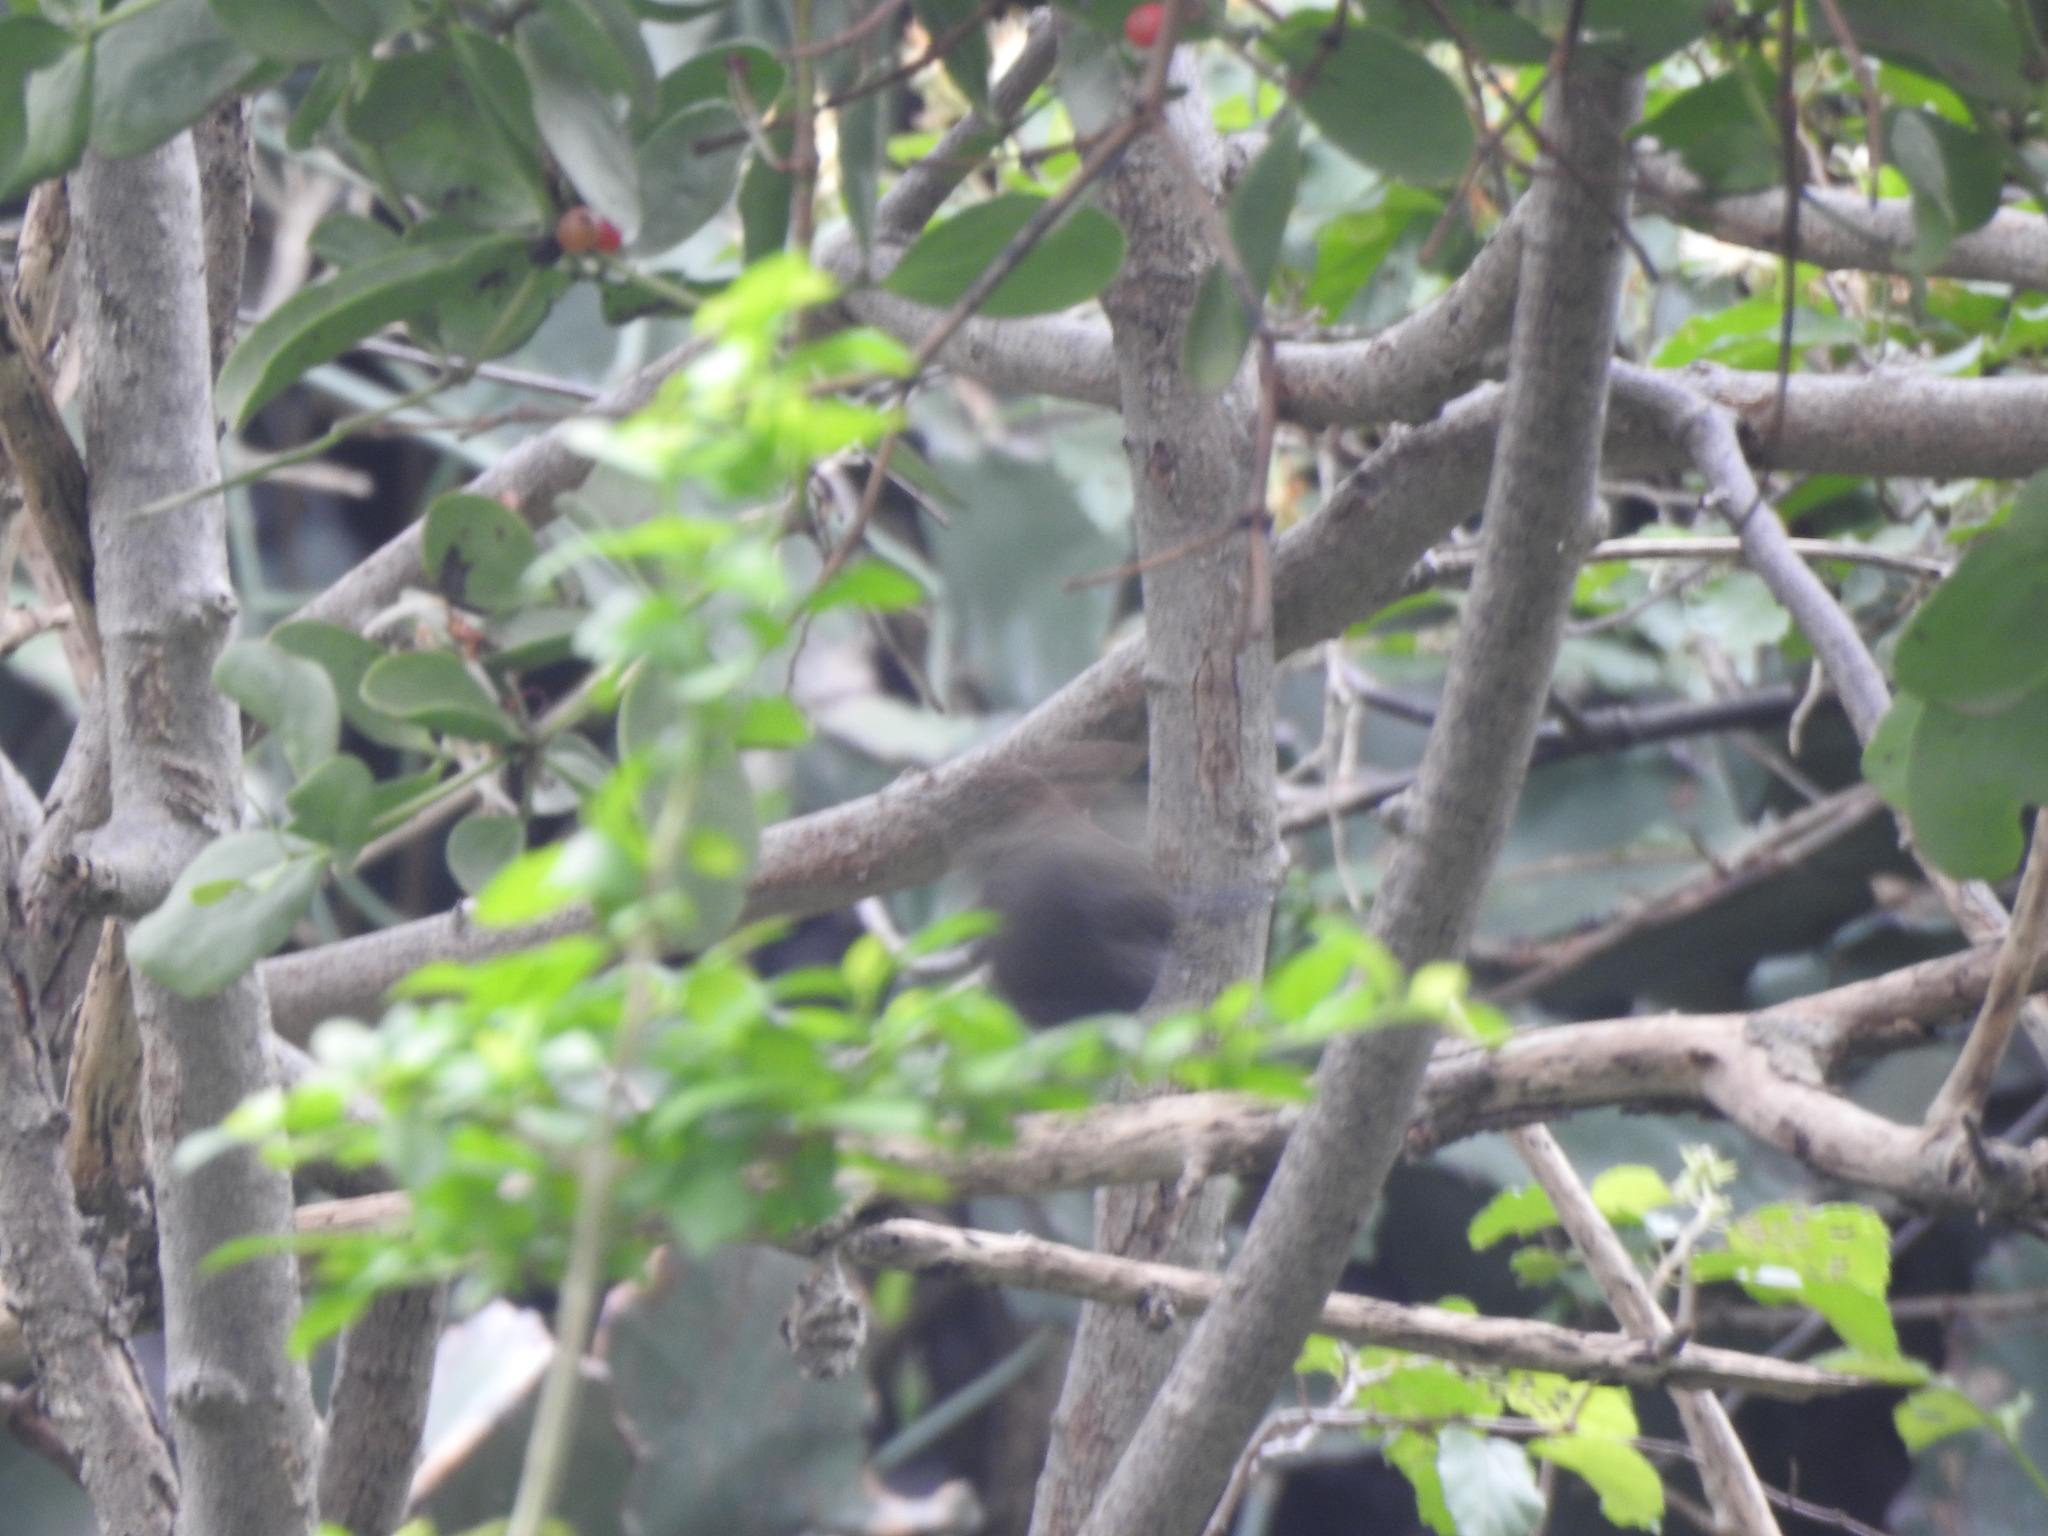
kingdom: Animalia
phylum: Chordata
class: Aves
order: Passeriformes
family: Muscicapidae
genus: Saxicoloides
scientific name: Saxicoloides fulicatus
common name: Indian robin
